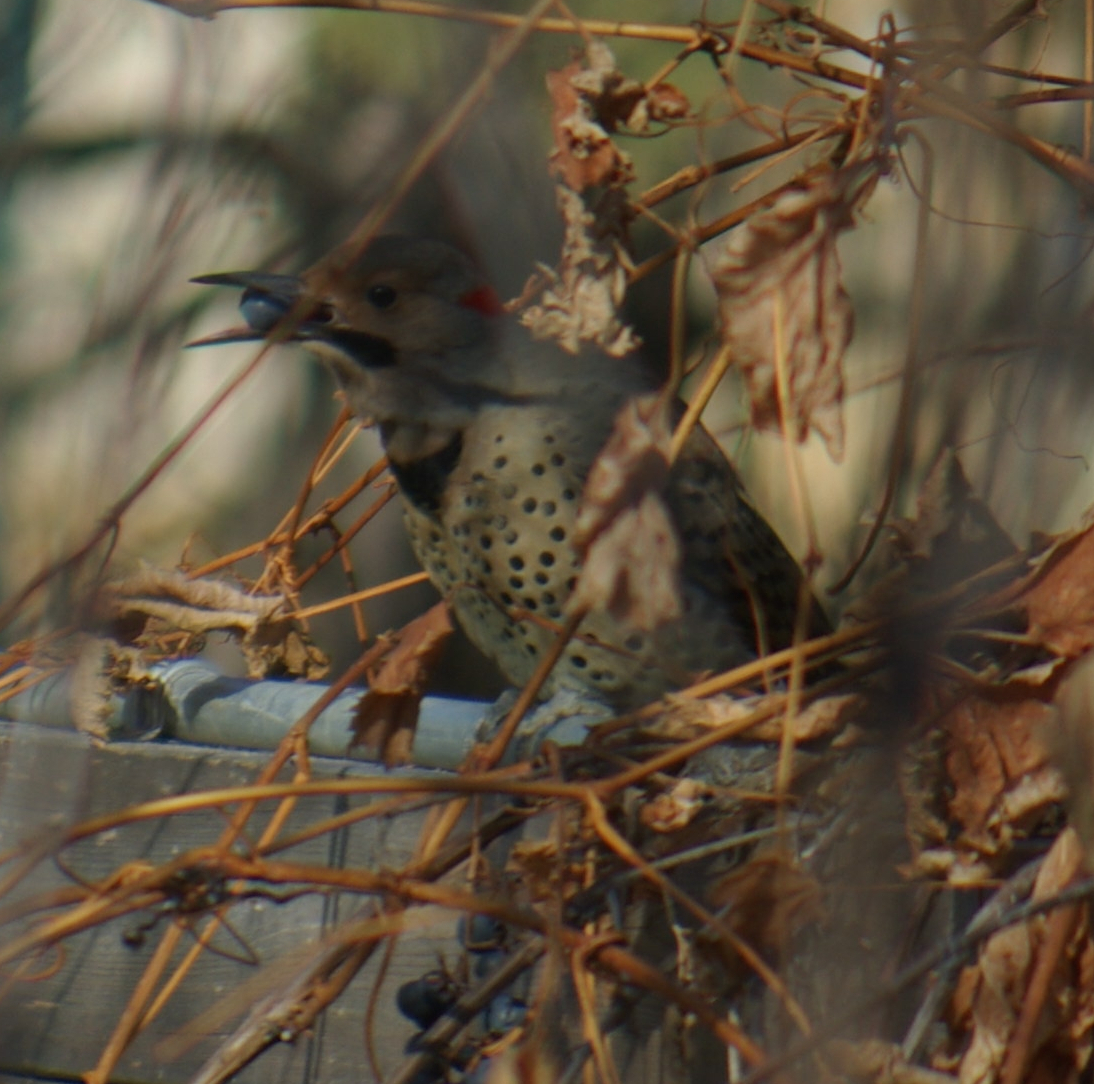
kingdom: Animalia
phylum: Chordata
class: Aves
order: Piciformes
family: Picidae
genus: Colaptes
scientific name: Colaptes auratus
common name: Northern flicker
